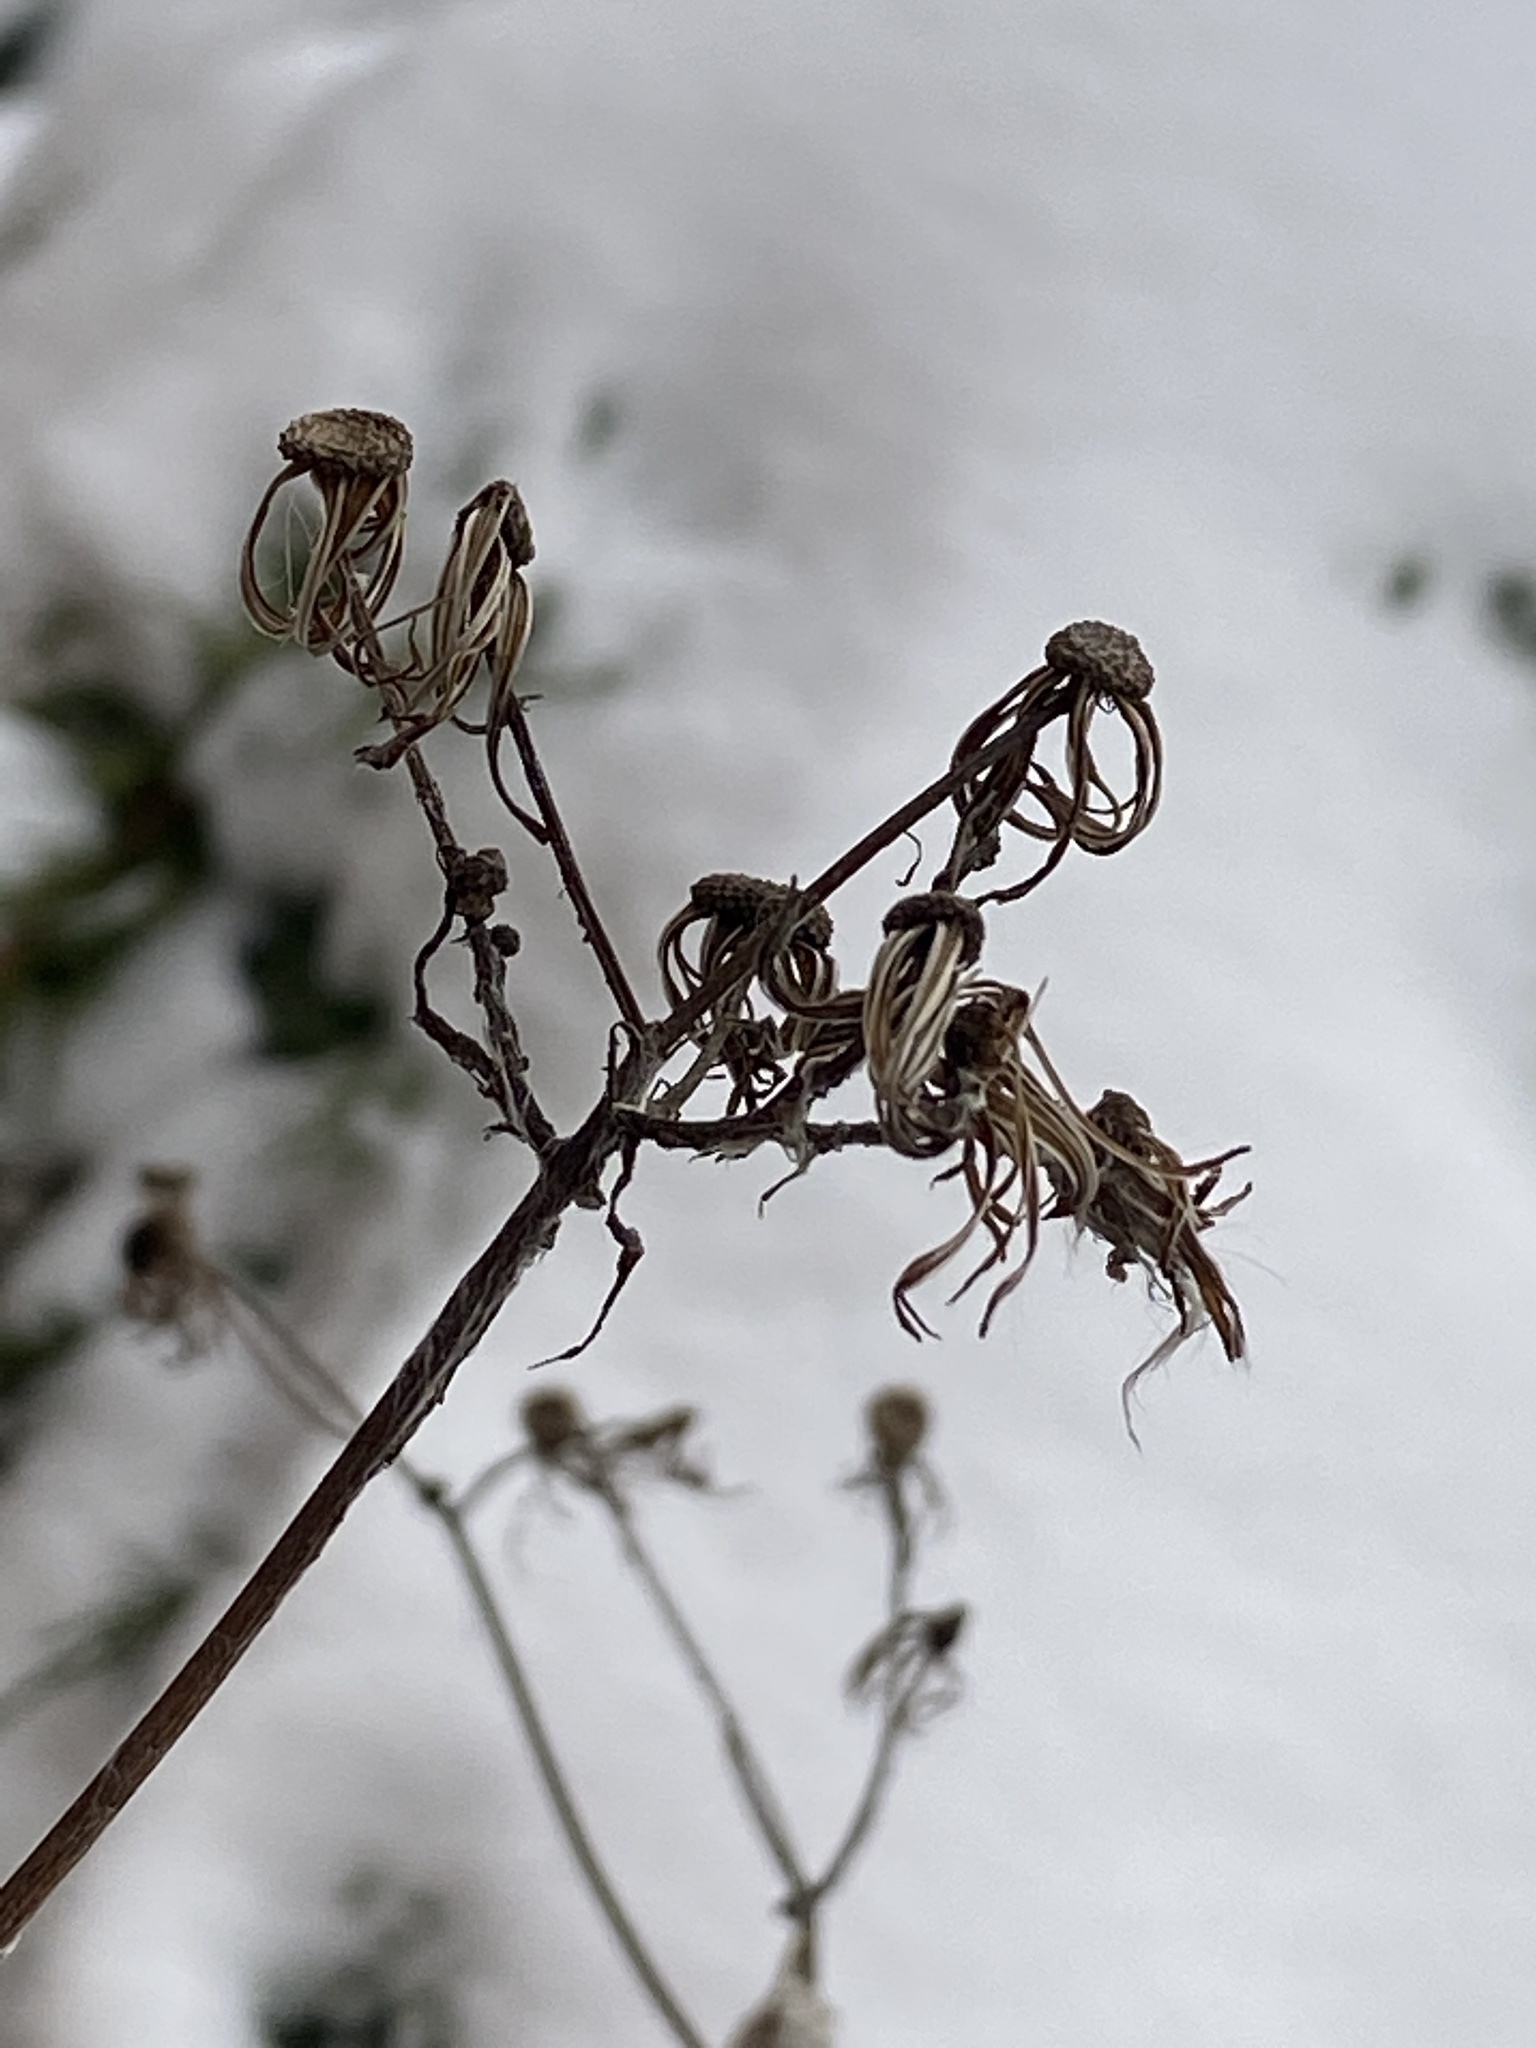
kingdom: Plantae
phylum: Tracheophyta
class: Magnoliopsida
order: Asterales
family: Asteraceae
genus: Erechtites
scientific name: Erechtites hieraciifolius
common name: American burnweed
